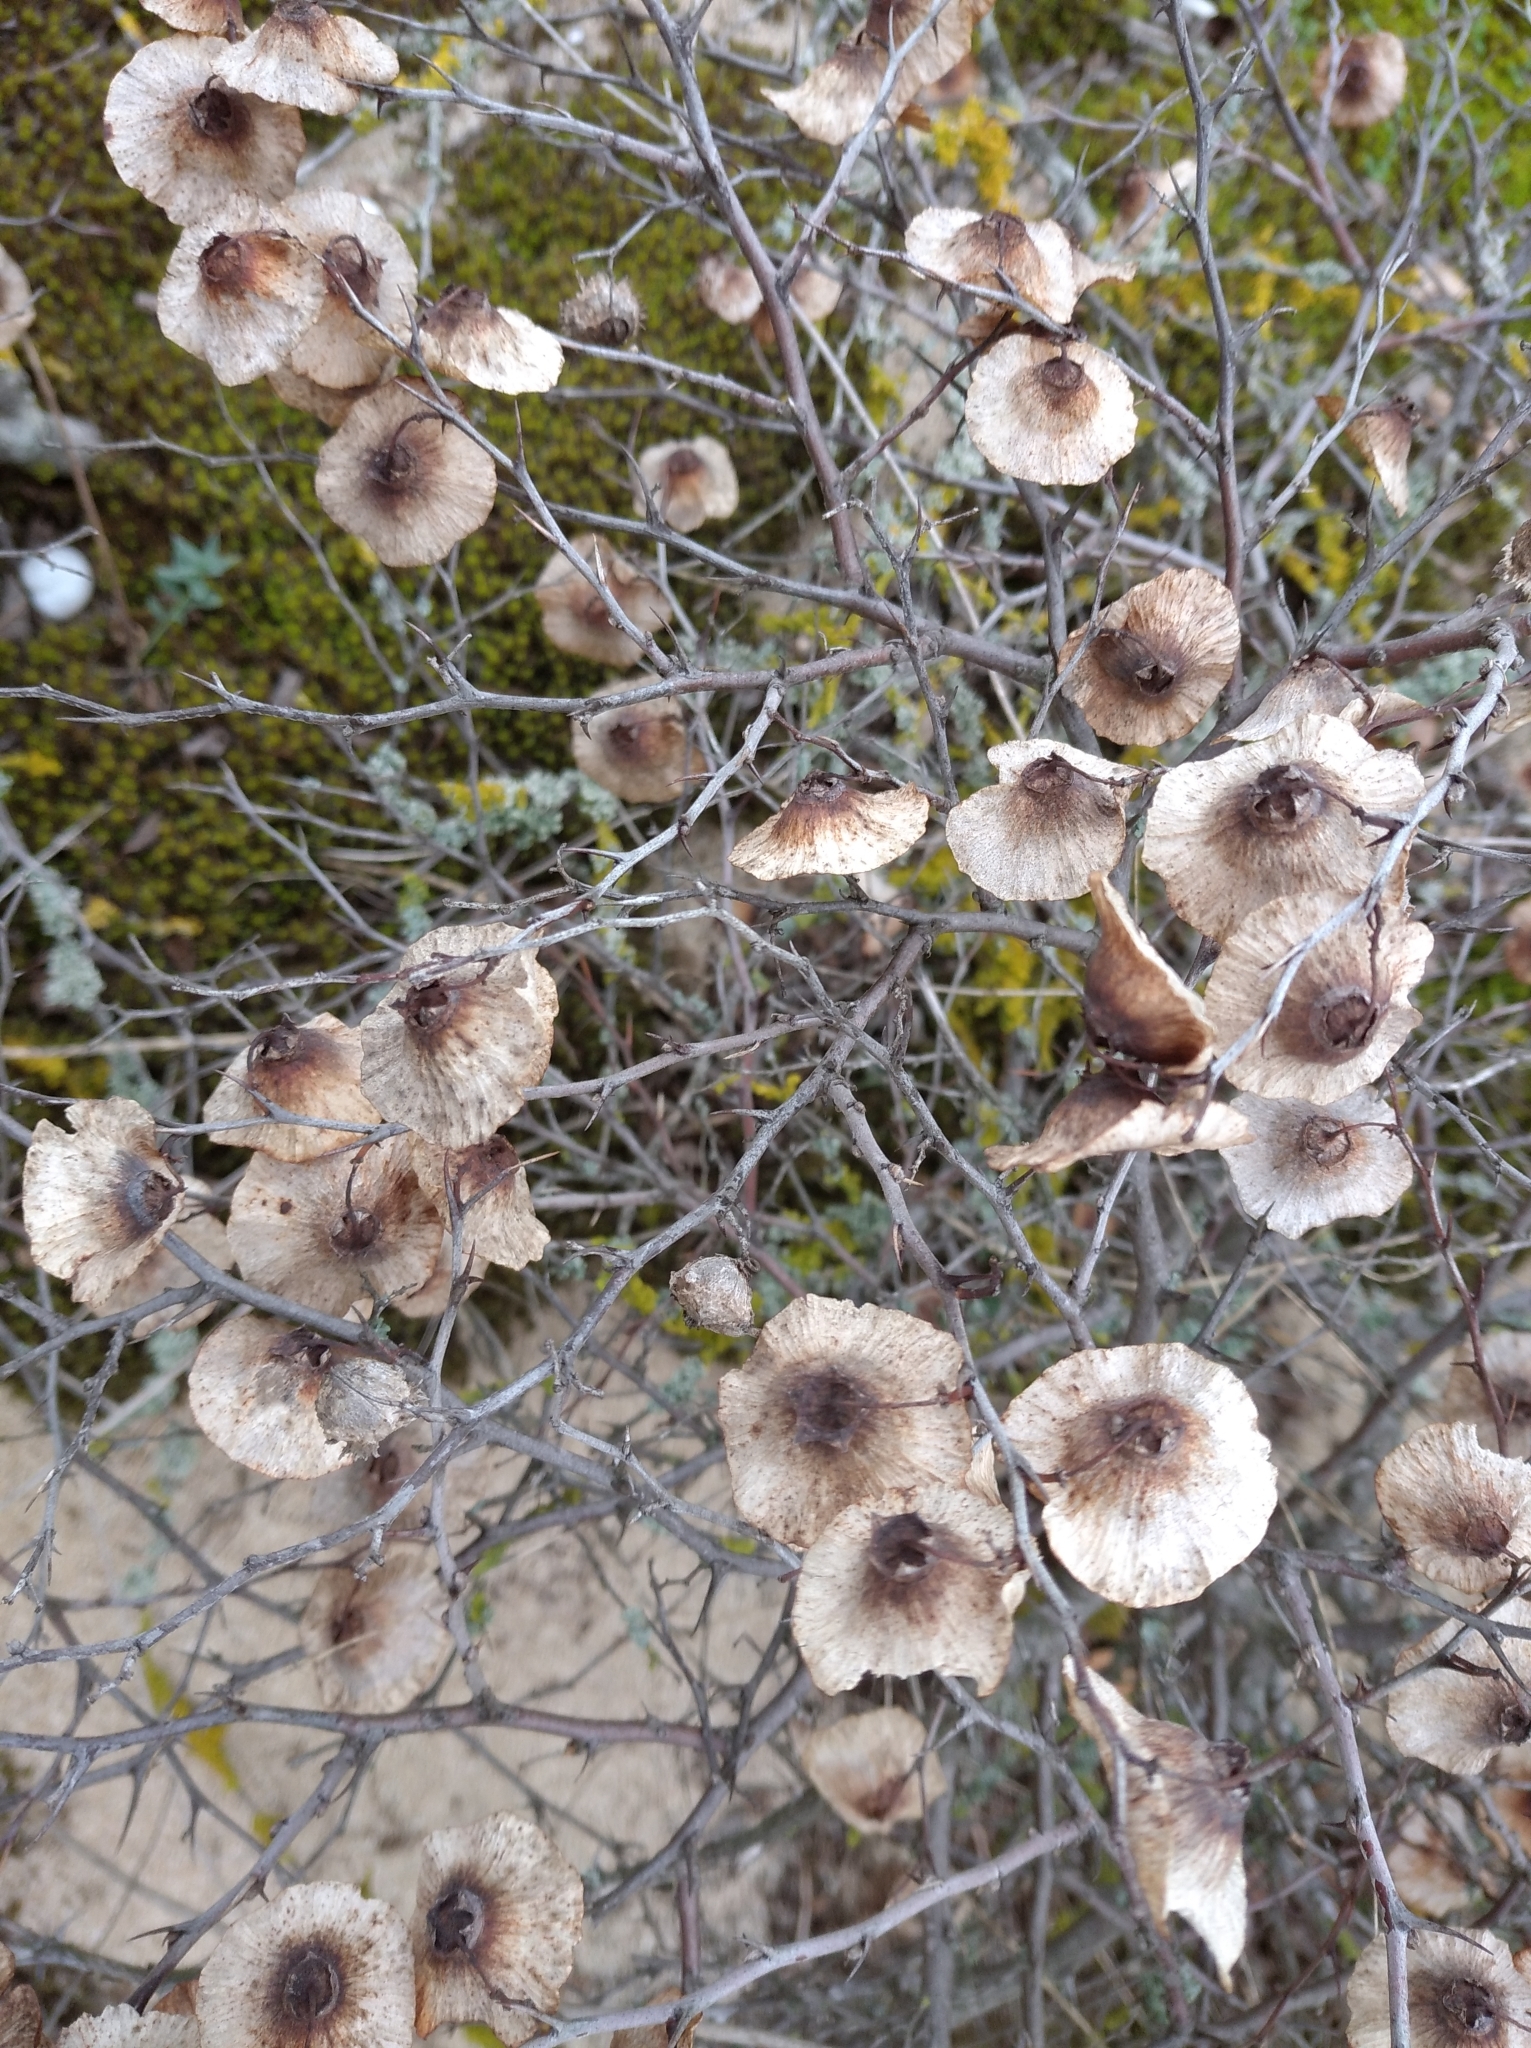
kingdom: Plantae
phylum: Tracheophyta
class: Magnoliopsida
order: Rosales
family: Rhamnaceae
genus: Paliurus
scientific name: Paliurus spina-christi
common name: Jeruselem thorn
